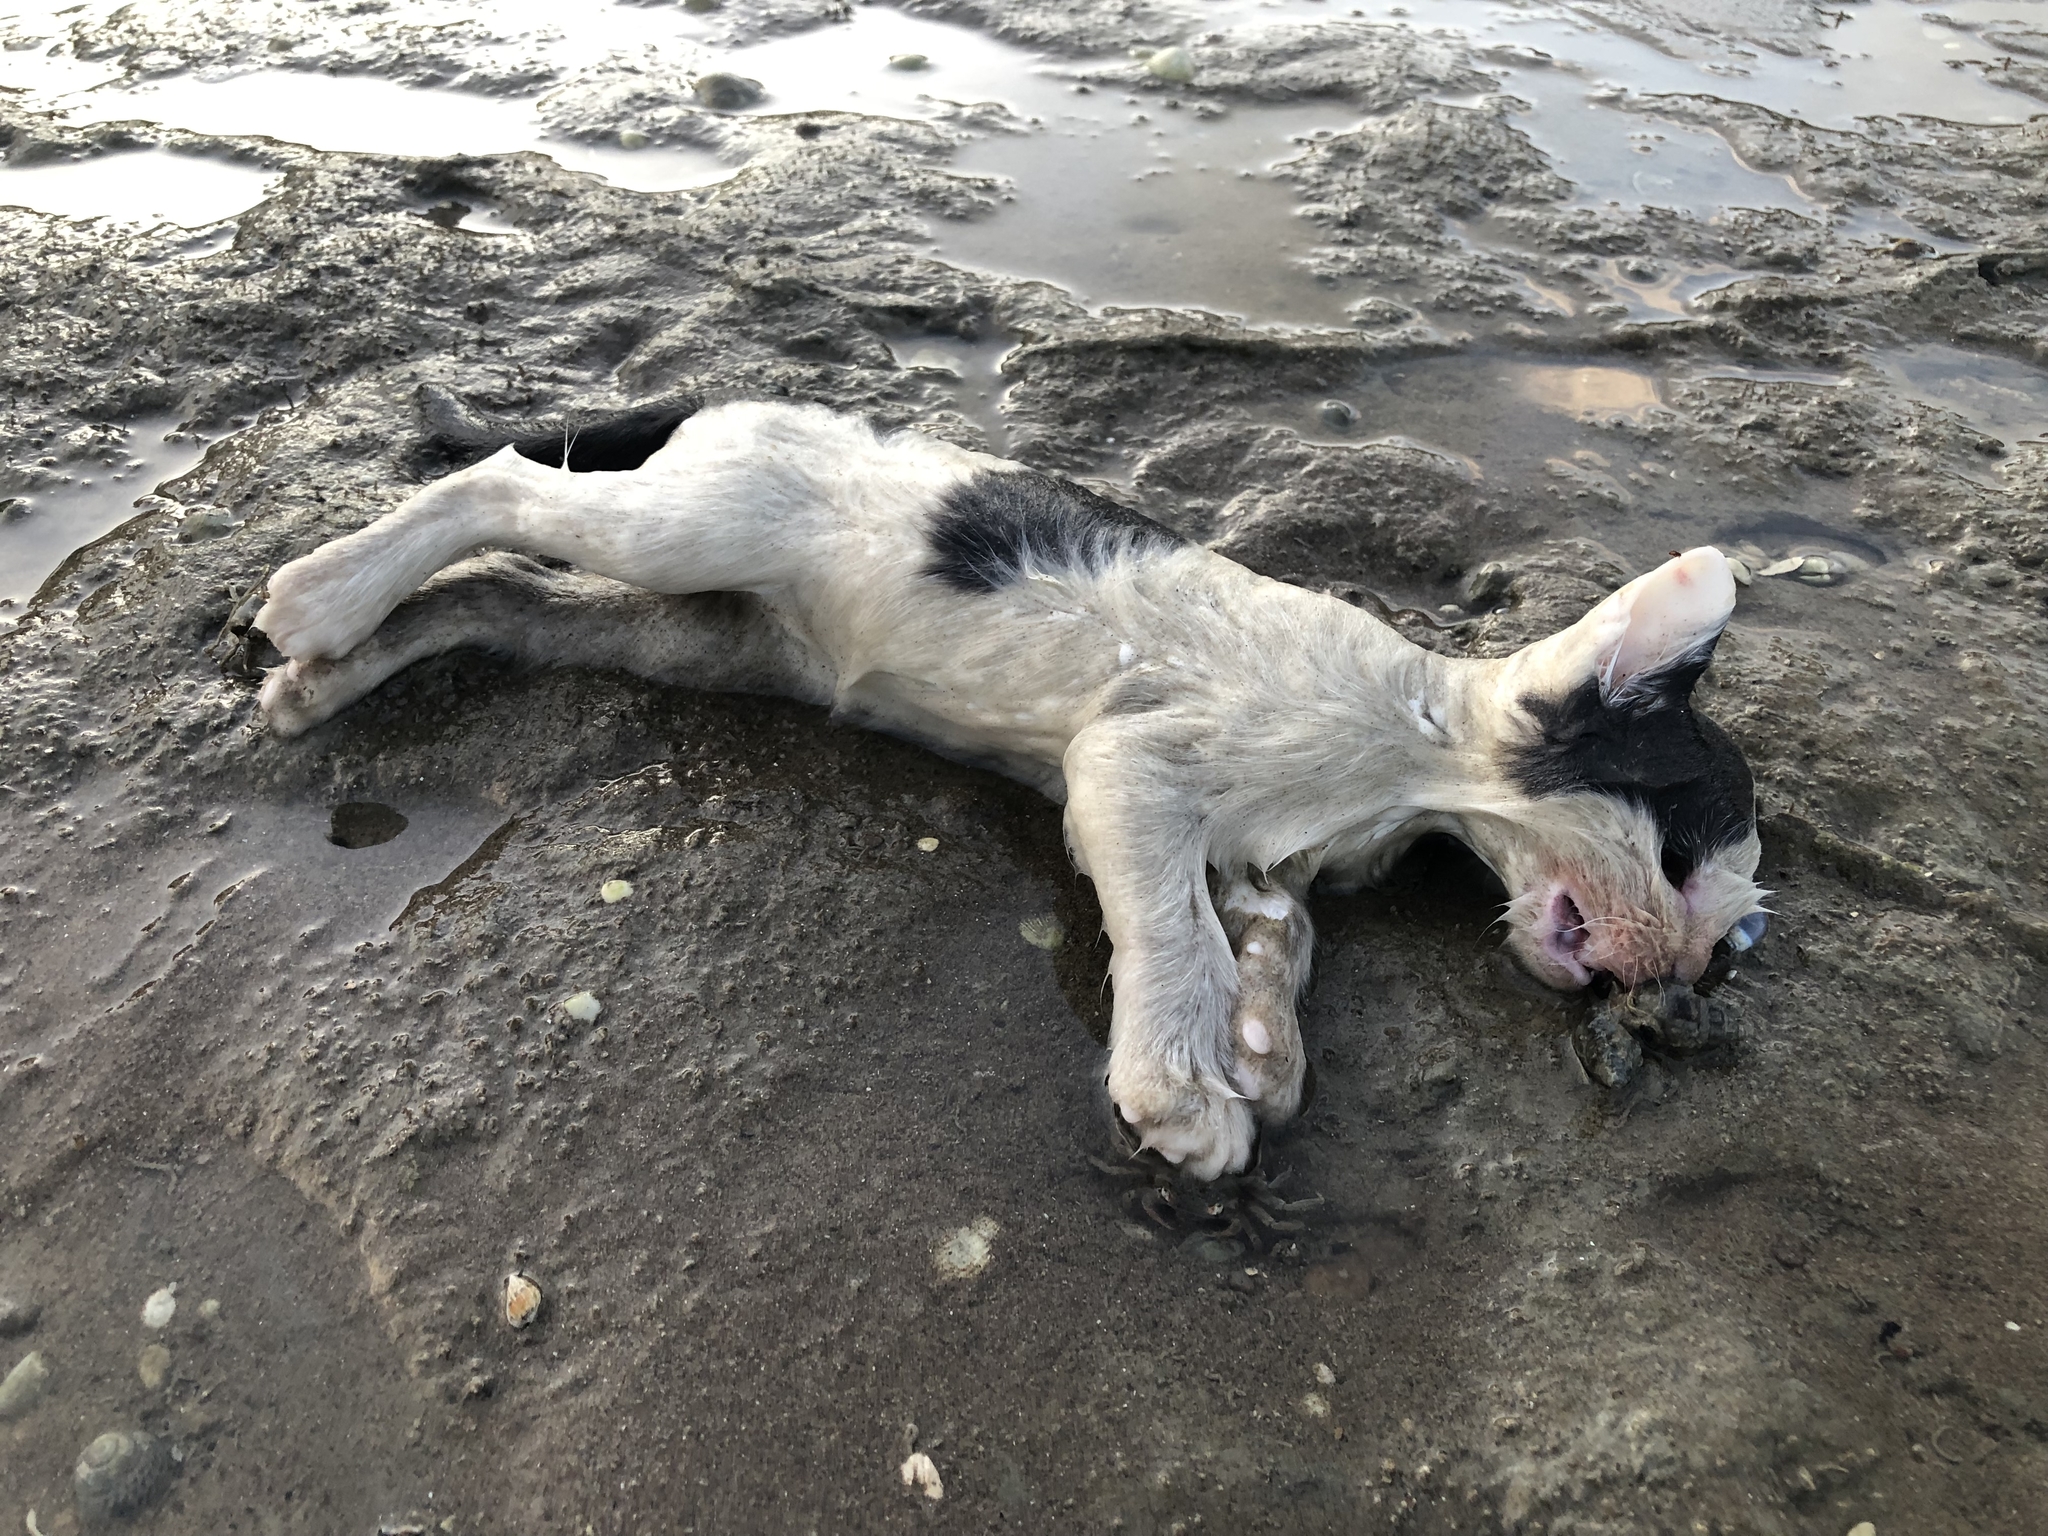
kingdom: Animalia
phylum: Chordata
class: Mammalia
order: Carnivora
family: Felidae
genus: Felis
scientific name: Felis catus
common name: Domestic cat
